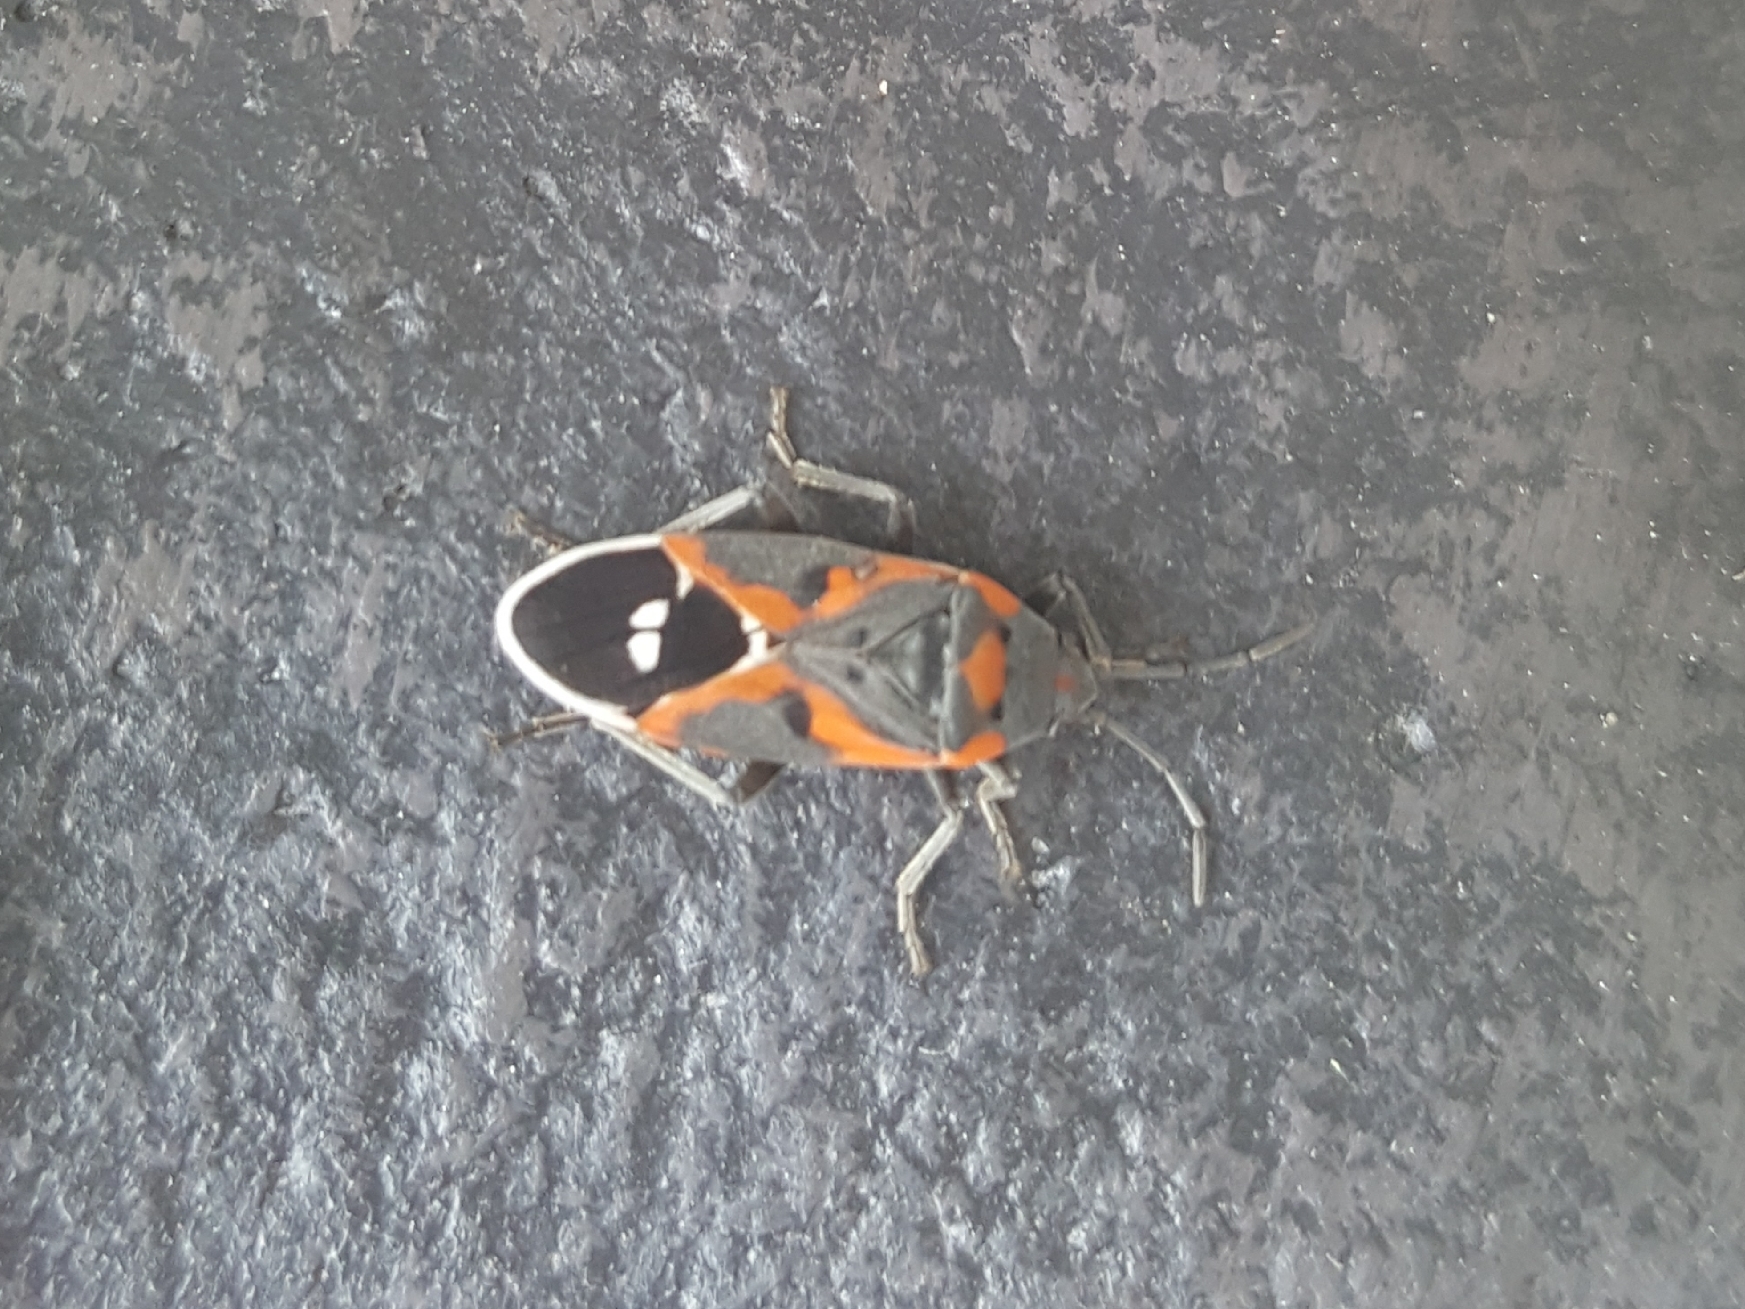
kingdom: Animalia
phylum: Arthropoda
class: Insecta
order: Hemiptera
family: Lygaeidae
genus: Lygaeus
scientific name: Lygaeus kalmii
